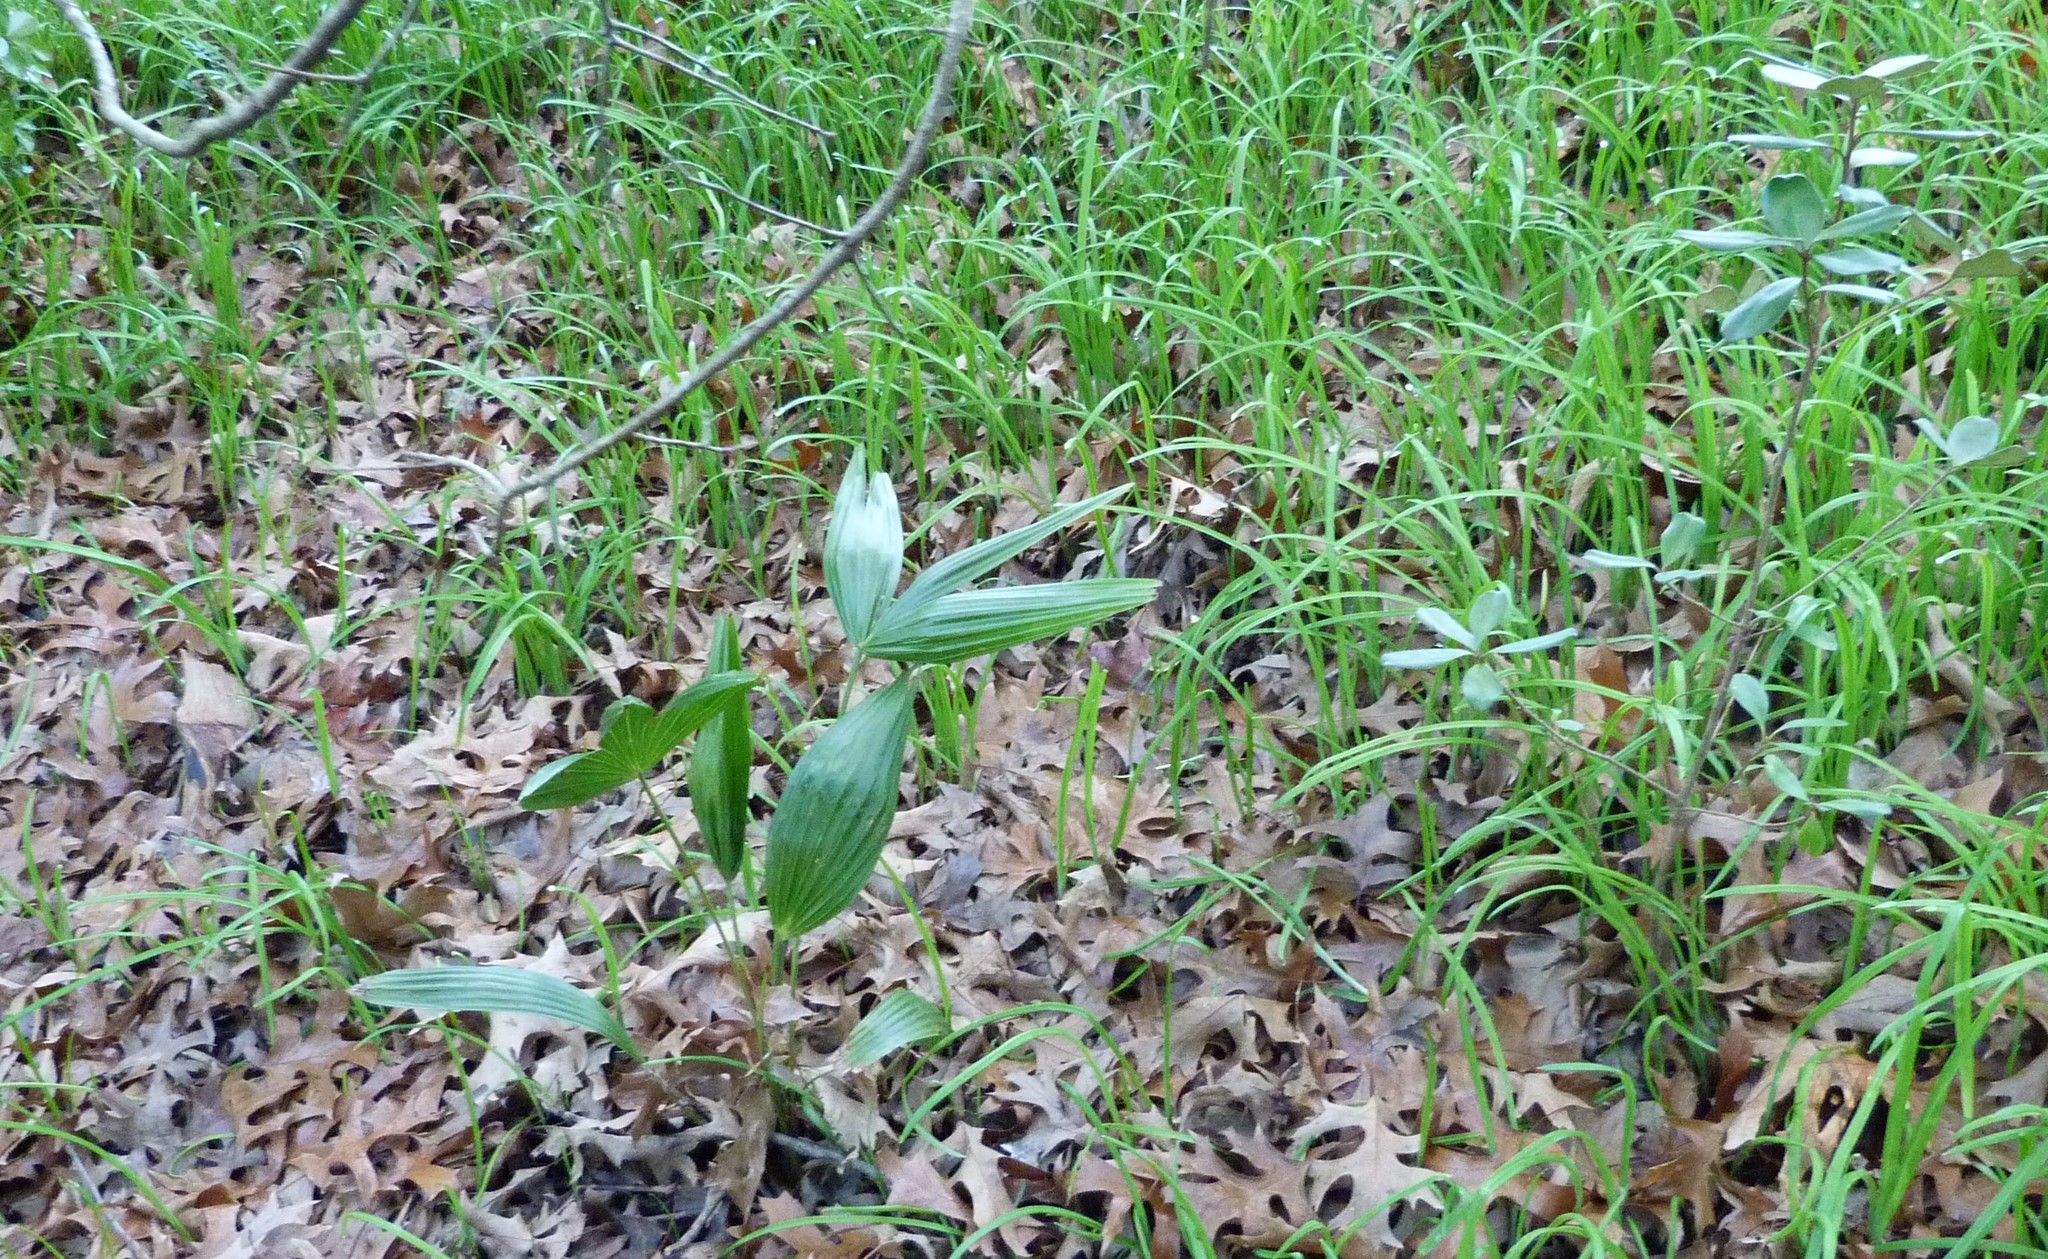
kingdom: Plantae
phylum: Tracheophyta
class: Liliopsida
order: Arecales
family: Arecaceae
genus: Trachycarpus
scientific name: Trachycarpus fortunei
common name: Chusan palm
